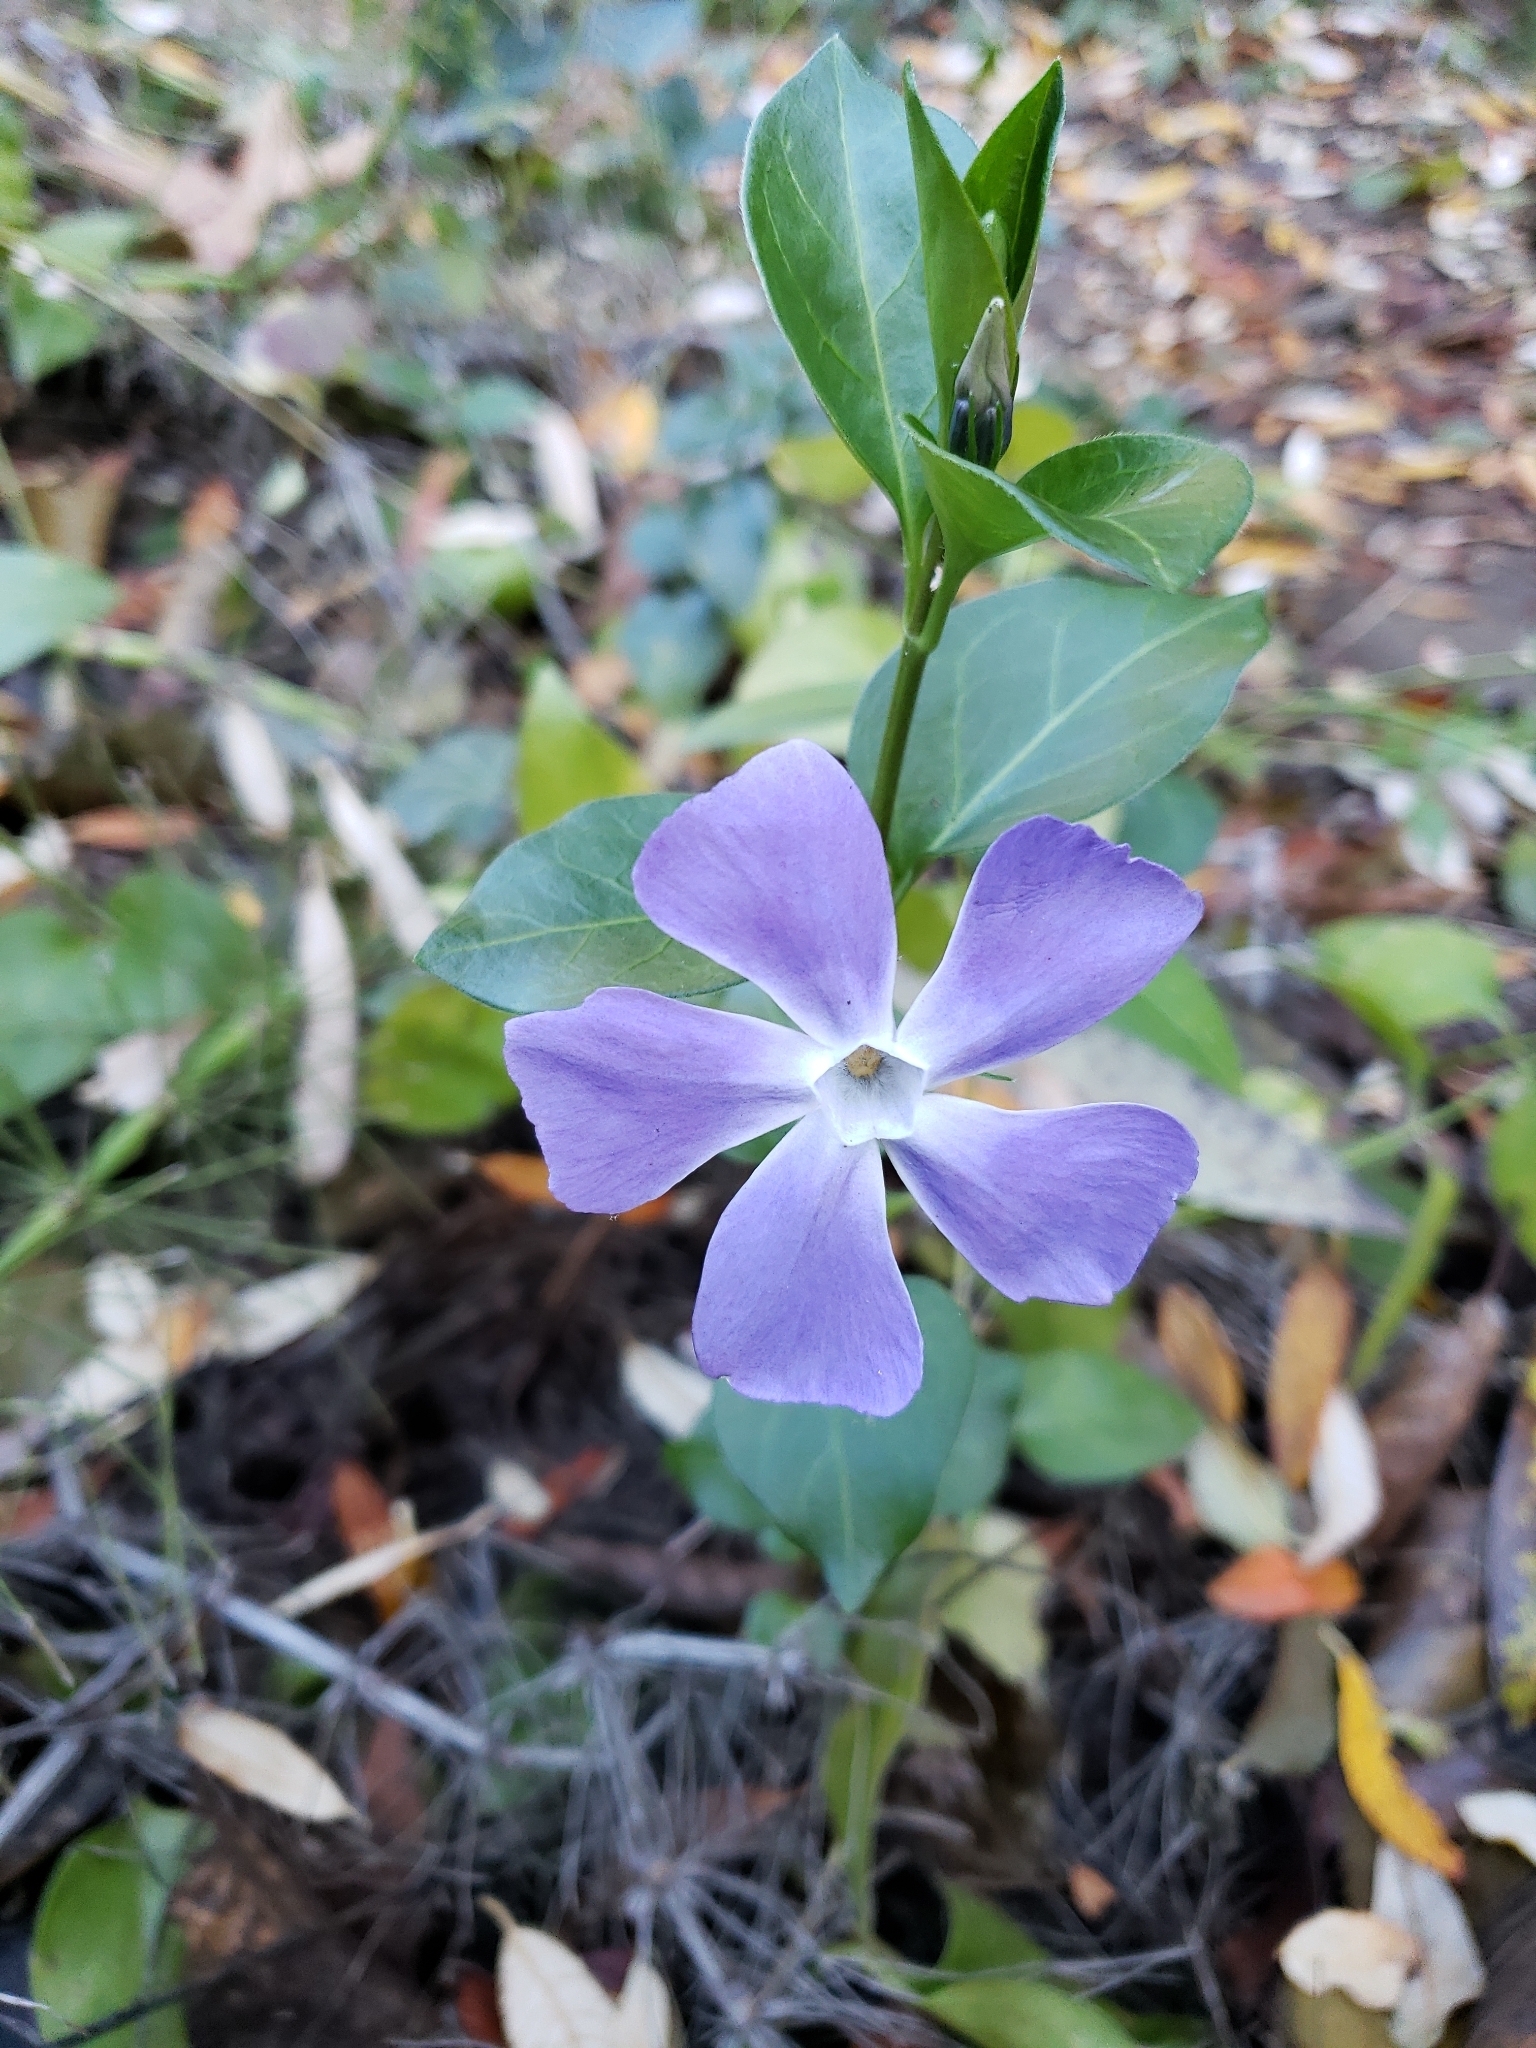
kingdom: Plantae
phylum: Tracheophyta
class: Magnoliopsida
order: Gentianales
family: Apocynaceae
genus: Vinca
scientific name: Vinca major
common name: Greater periwinkle
